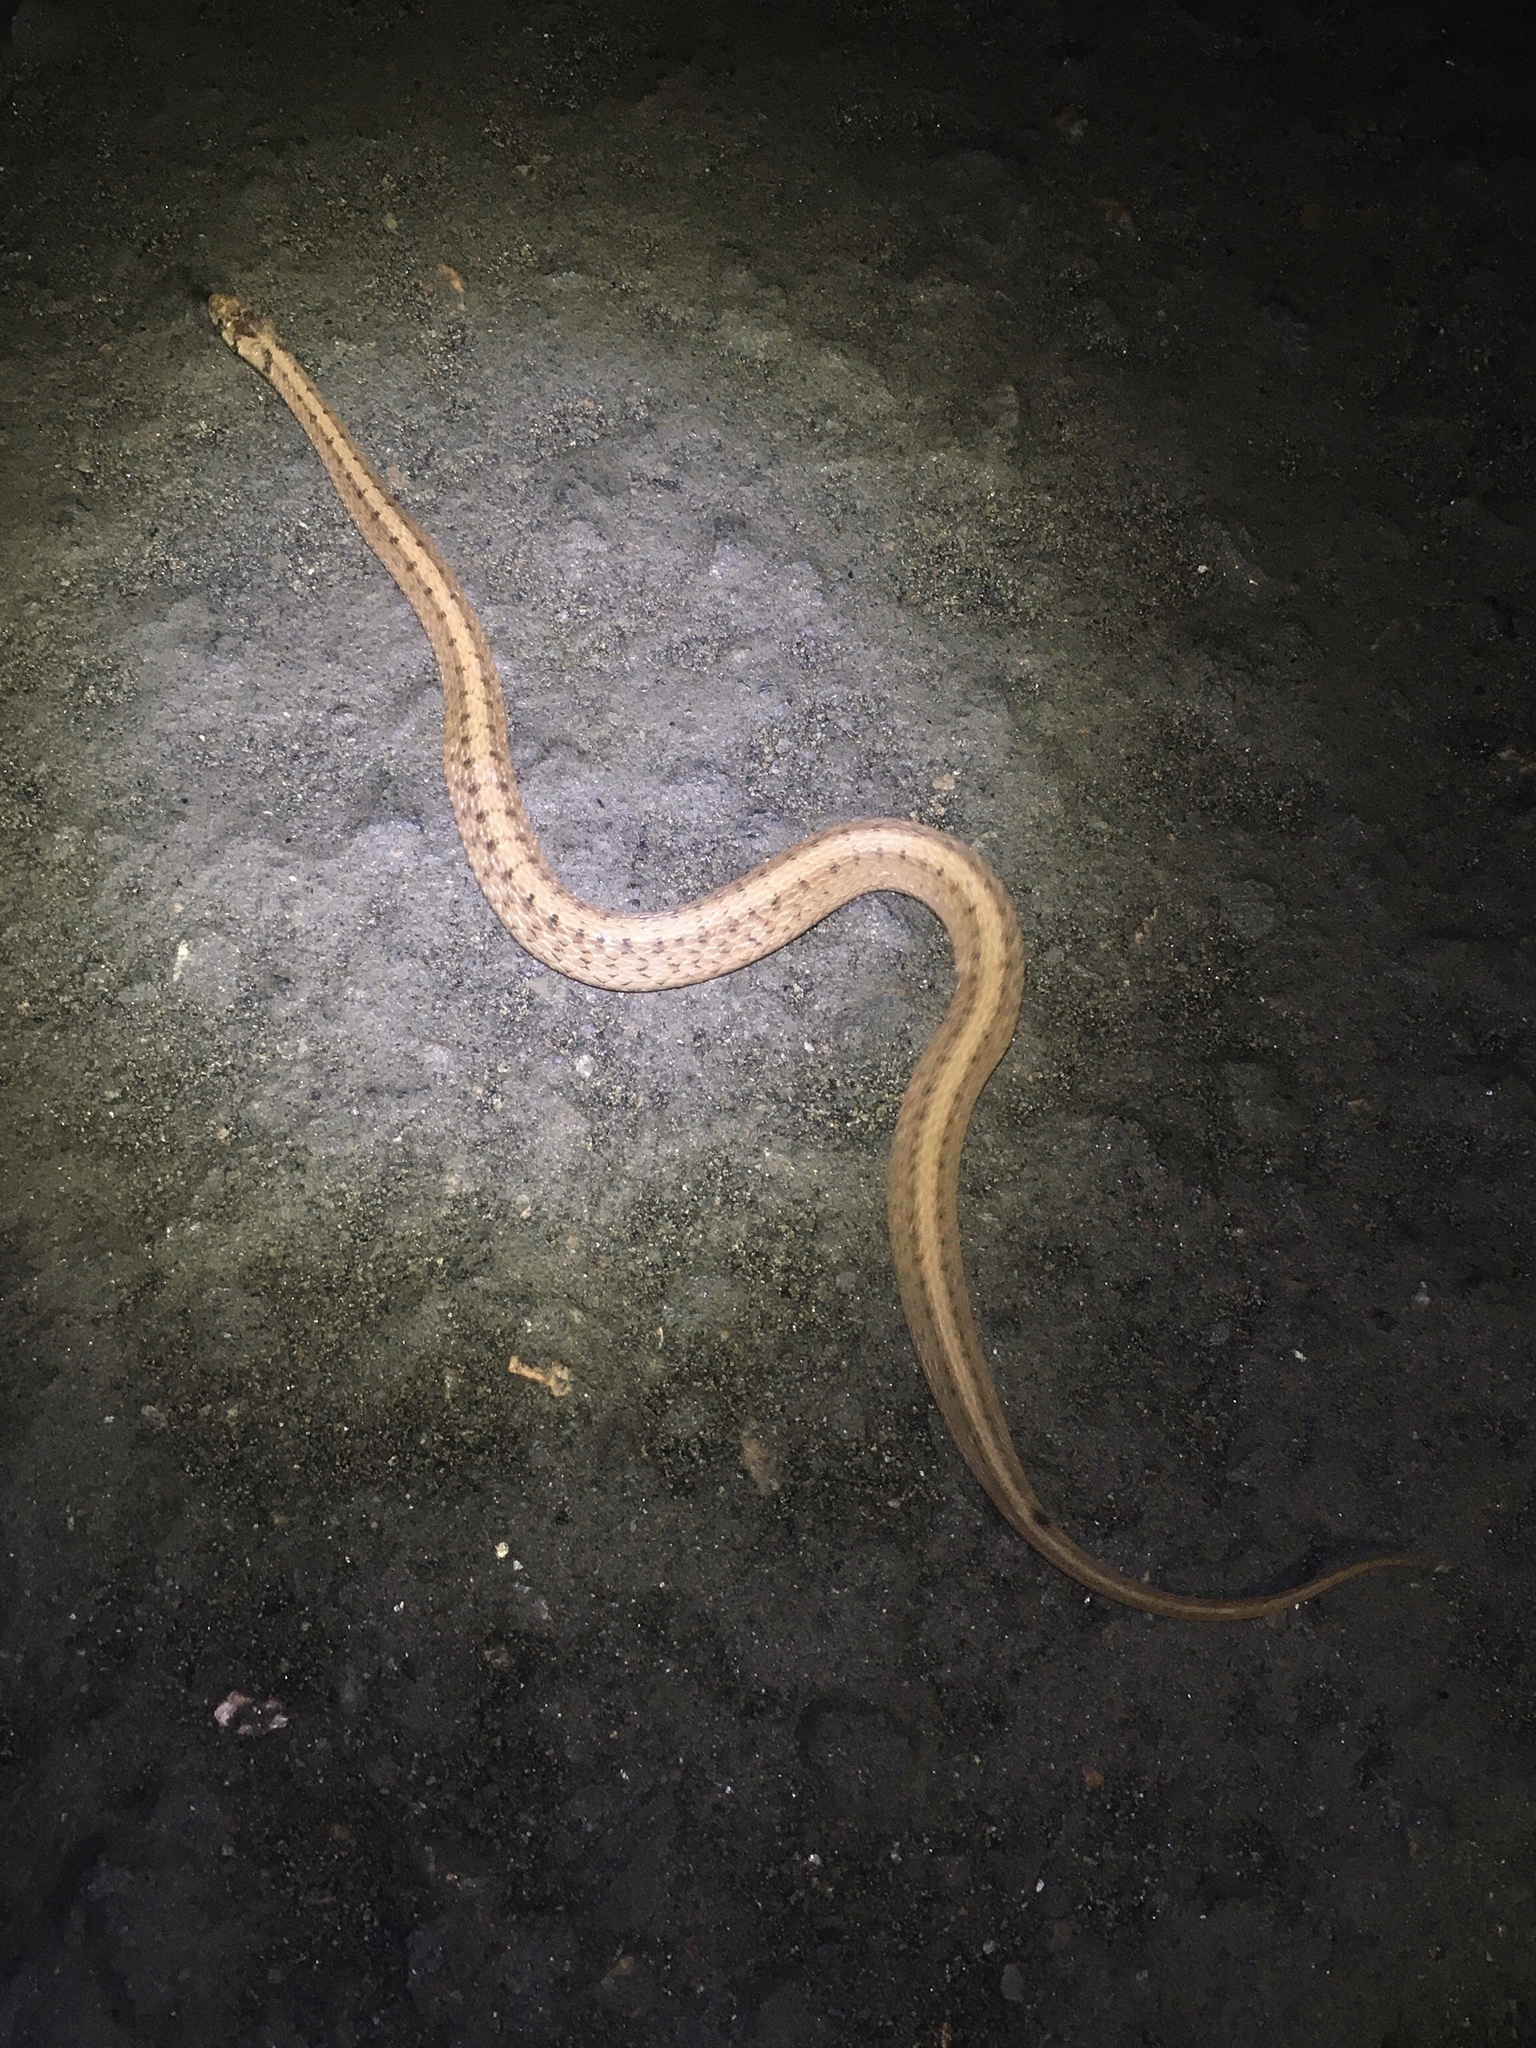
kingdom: Animalia
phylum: Chordata
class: Squamata
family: Colubridae
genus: Storeria
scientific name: Storeria dekayi
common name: (dekay’s) brown snake
